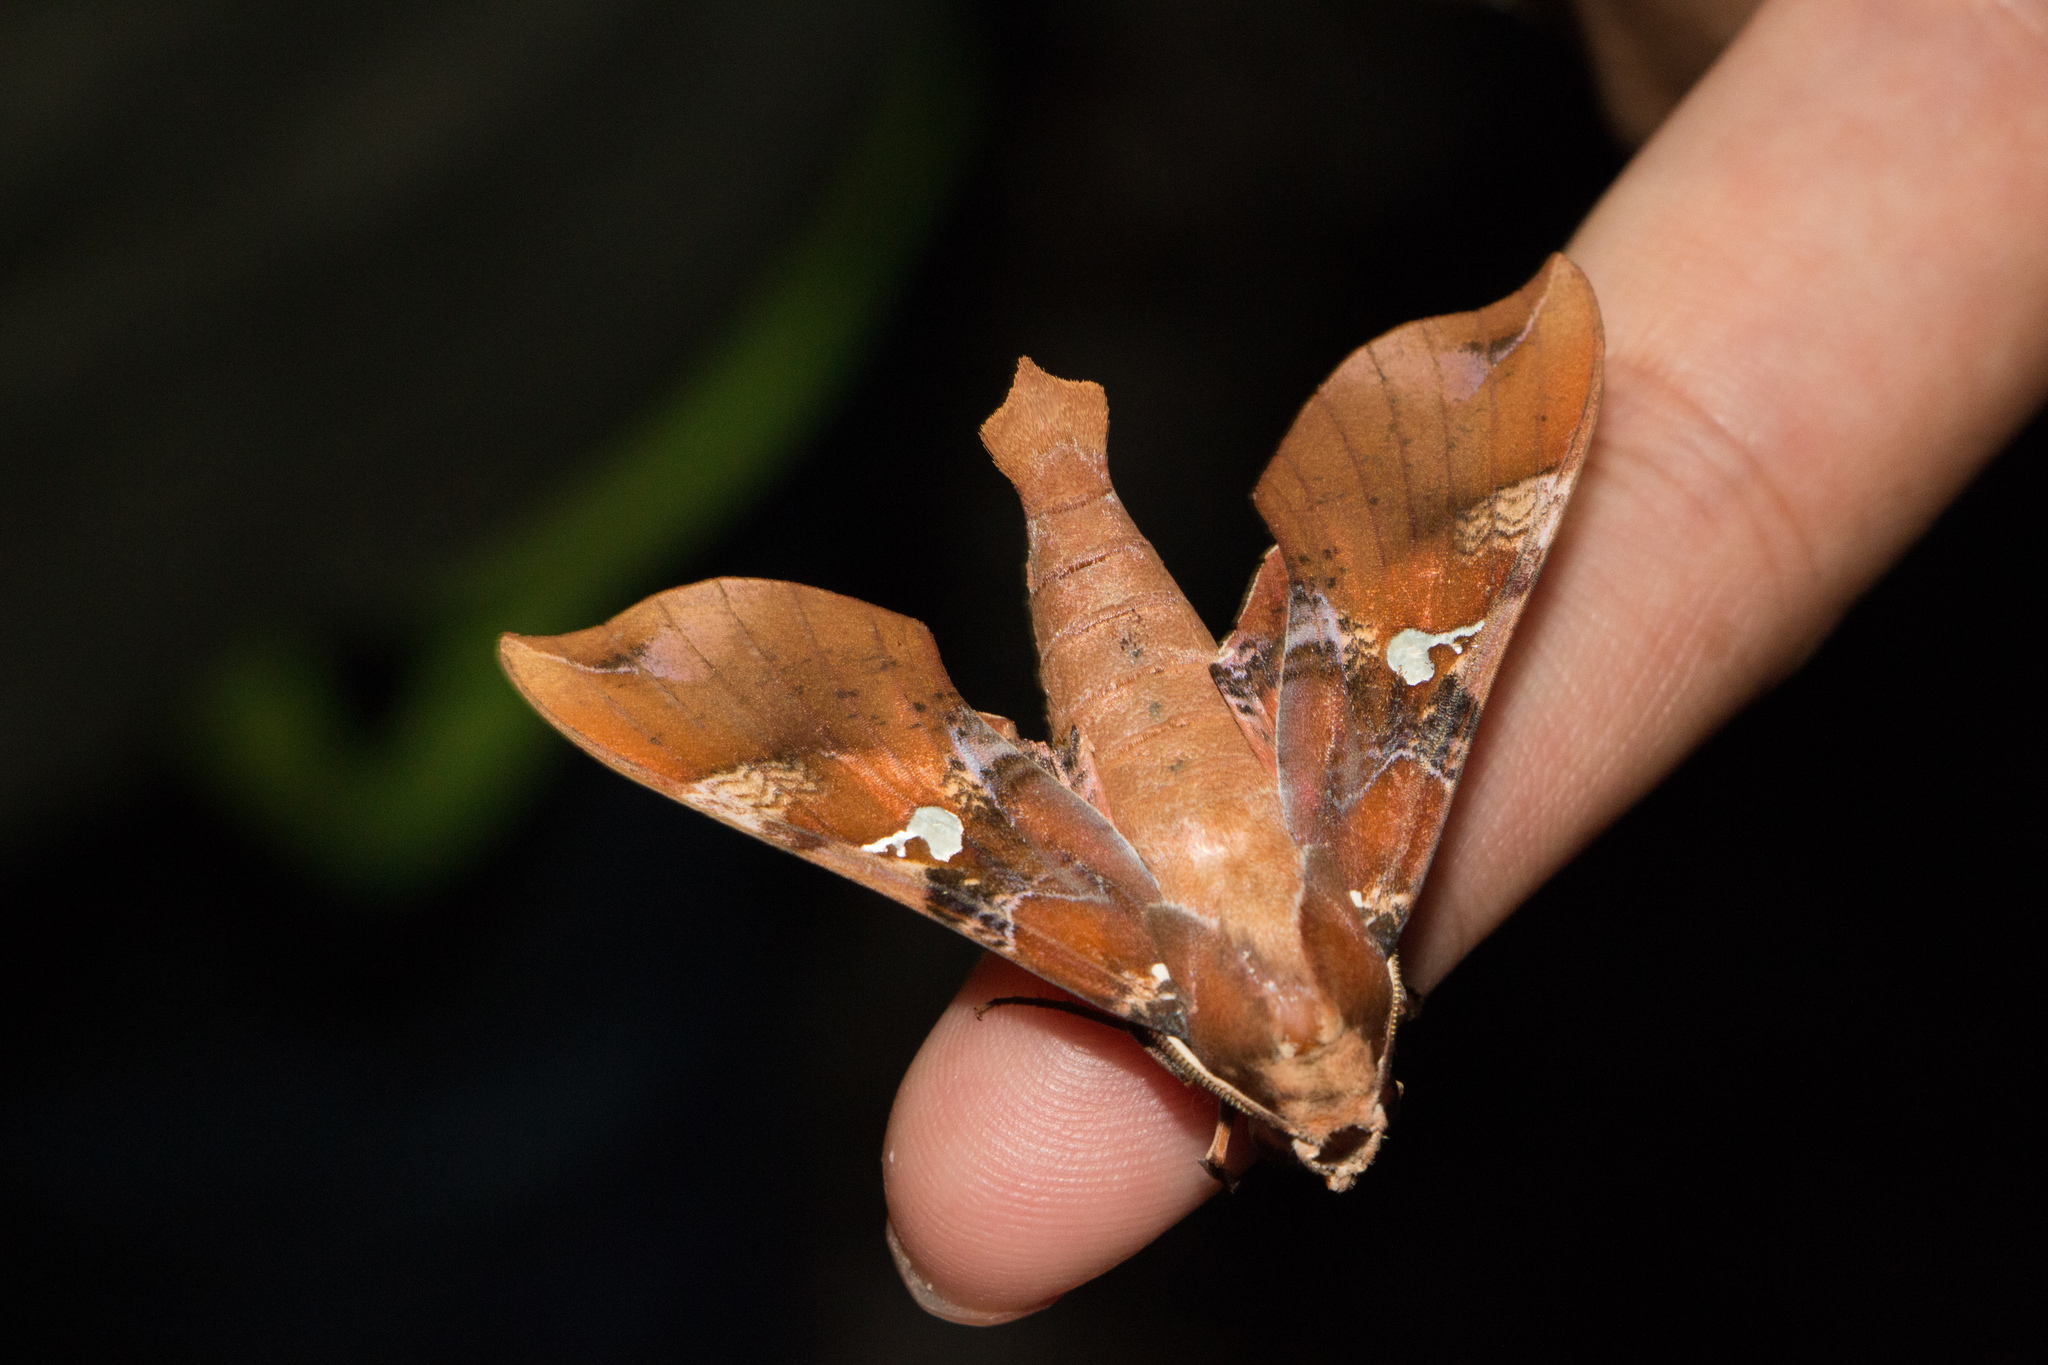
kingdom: Animalia
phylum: Arthropoda
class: Insecta
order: Lepidoptera
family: Sphingidae
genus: Callionima
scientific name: Callionima falcifera
